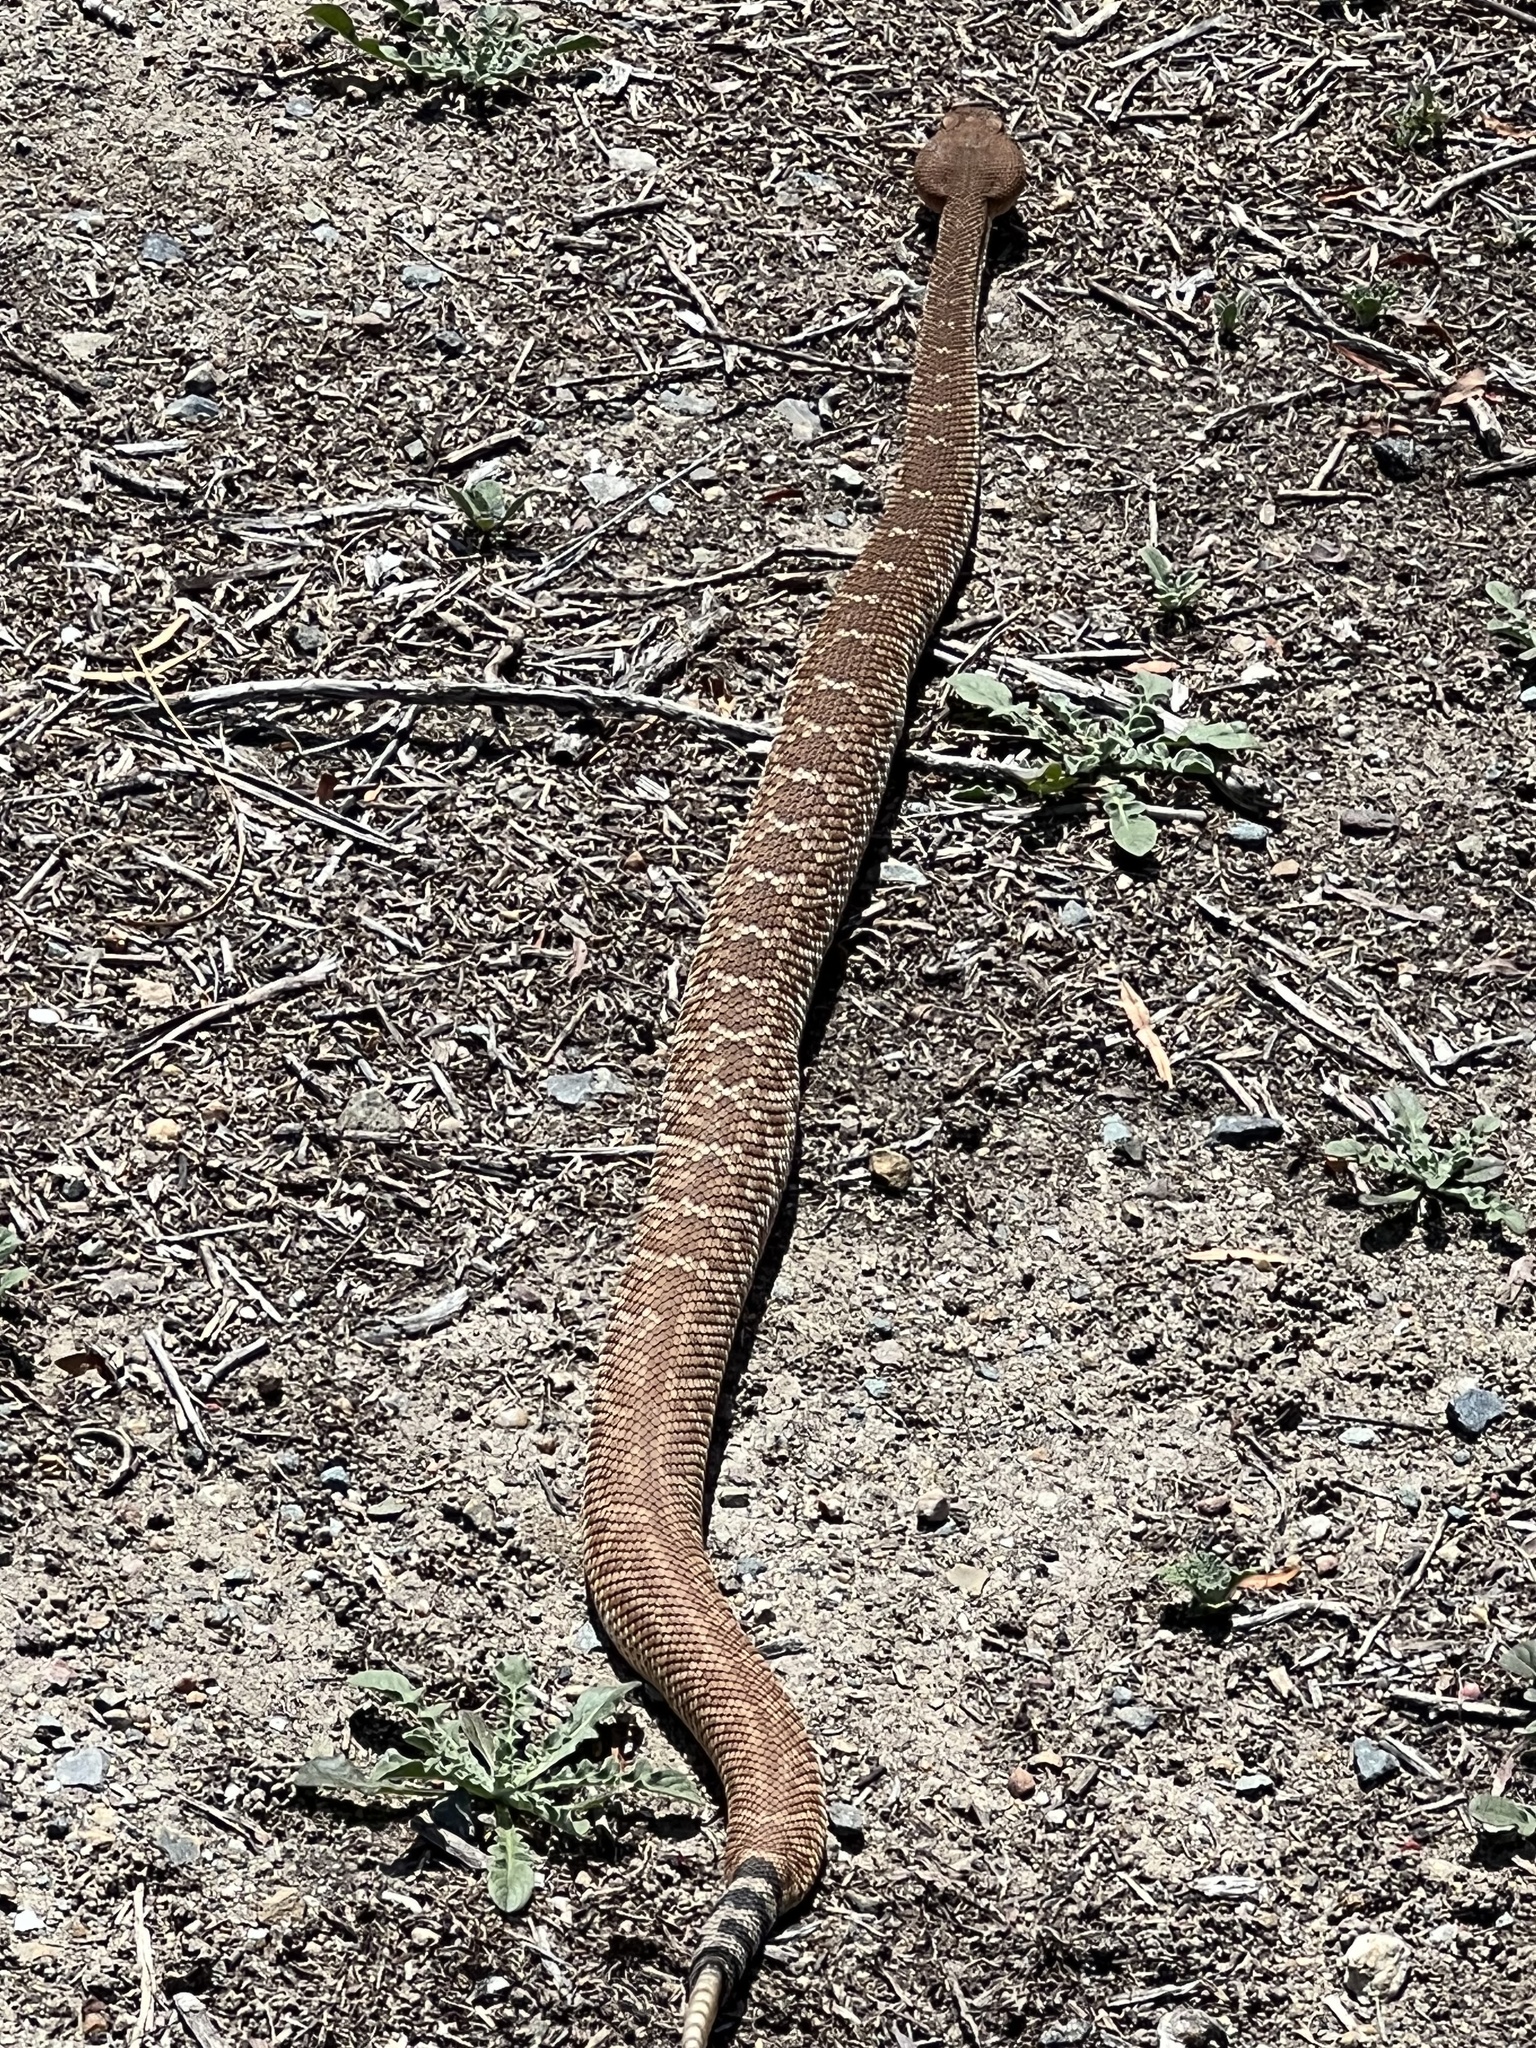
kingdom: Animalia
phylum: Chordata
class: Squamata
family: Viperidae
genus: Crotalus
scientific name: Crotalus ruber
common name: Red diamond rattlesnake
